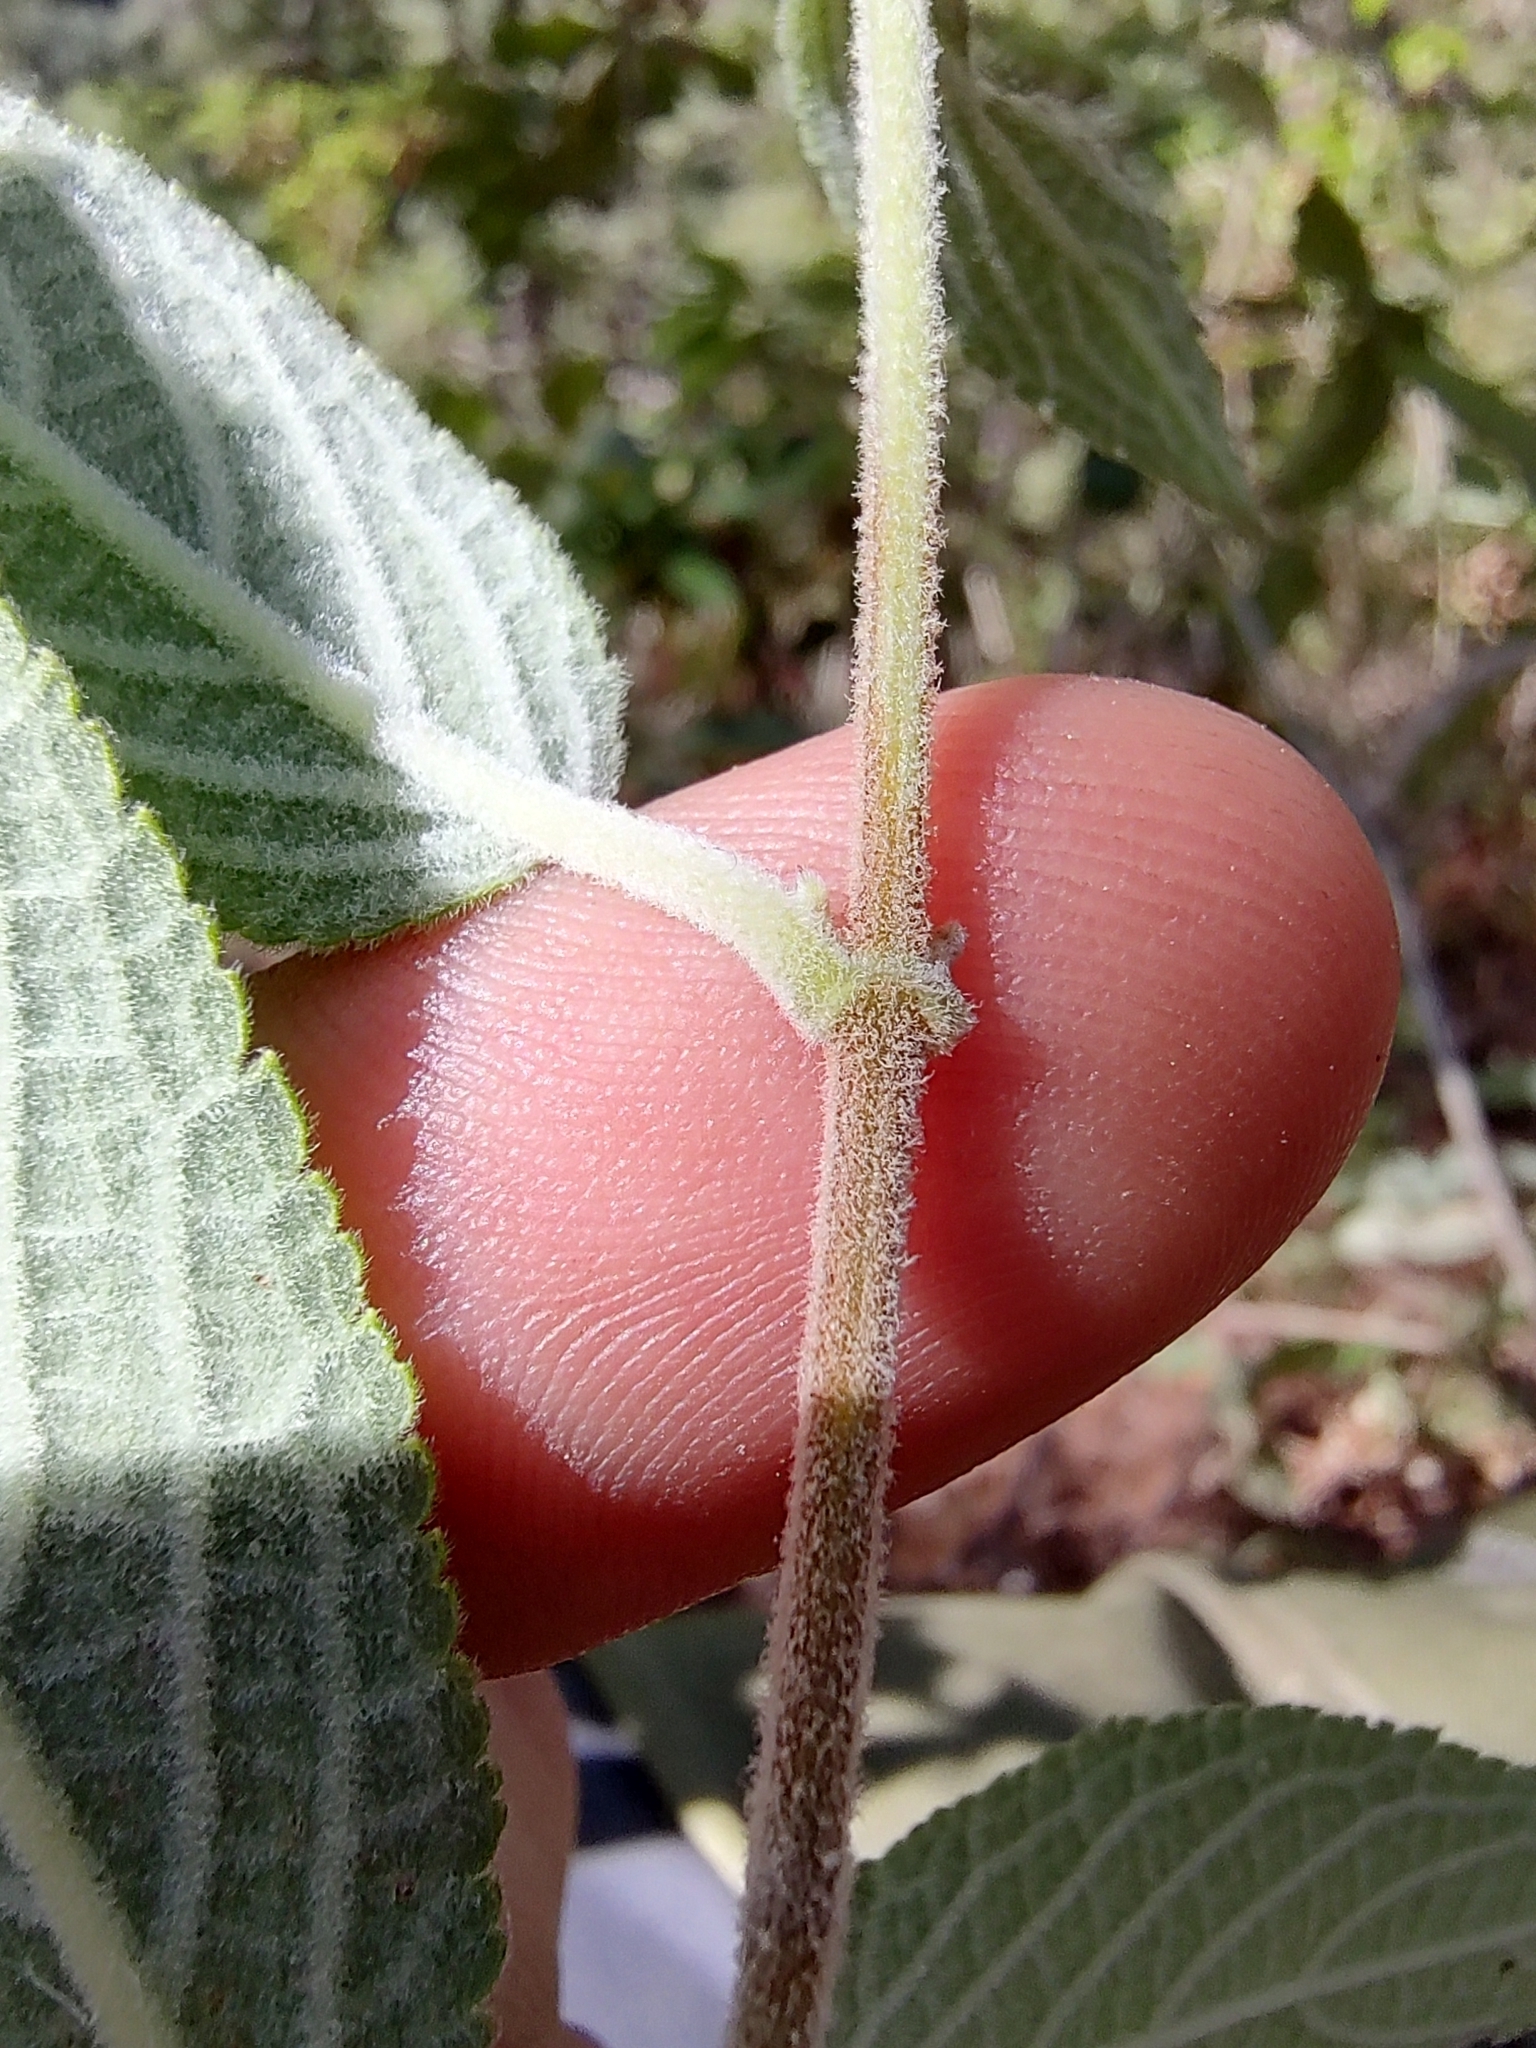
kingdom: Plantae
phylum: Tracheophyta
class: Magnoliopsida
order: Lamiales
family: Lamiaceae
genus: Mesosphaerum
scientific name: Mesosphaerum oblongifolium
